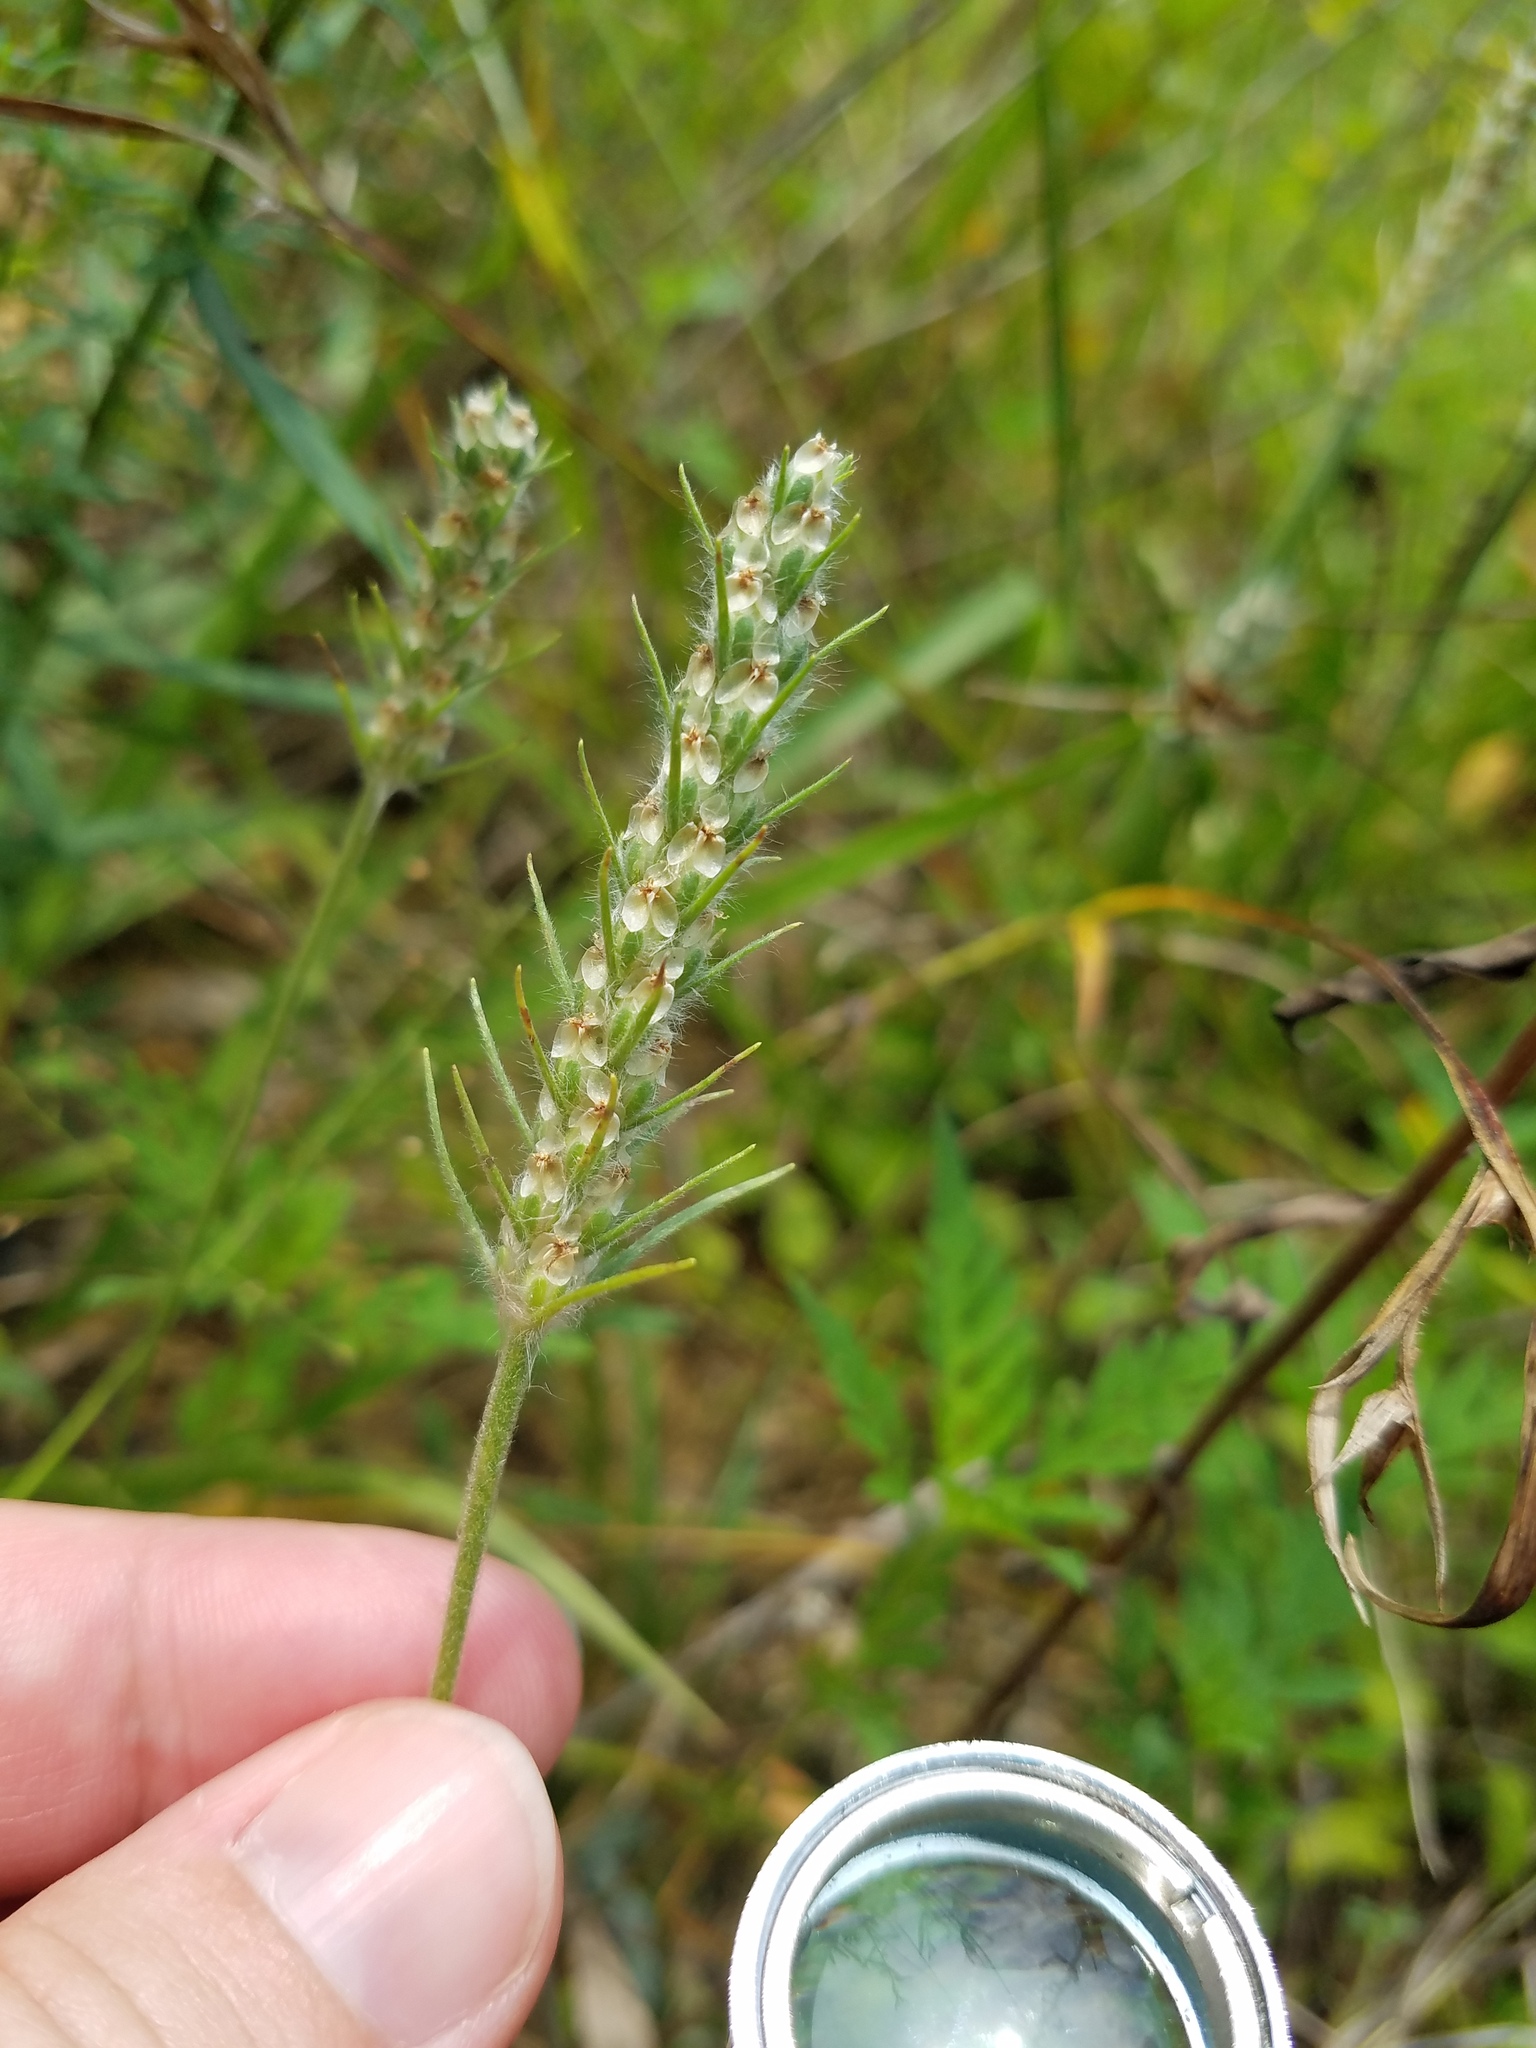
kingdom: Plantae
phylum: Tracheophyta
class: Magnoliopsida
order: Lamiales
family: Plantaginaceae
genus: Plantago
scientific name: Plantago aristata
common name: Bracted plantain
